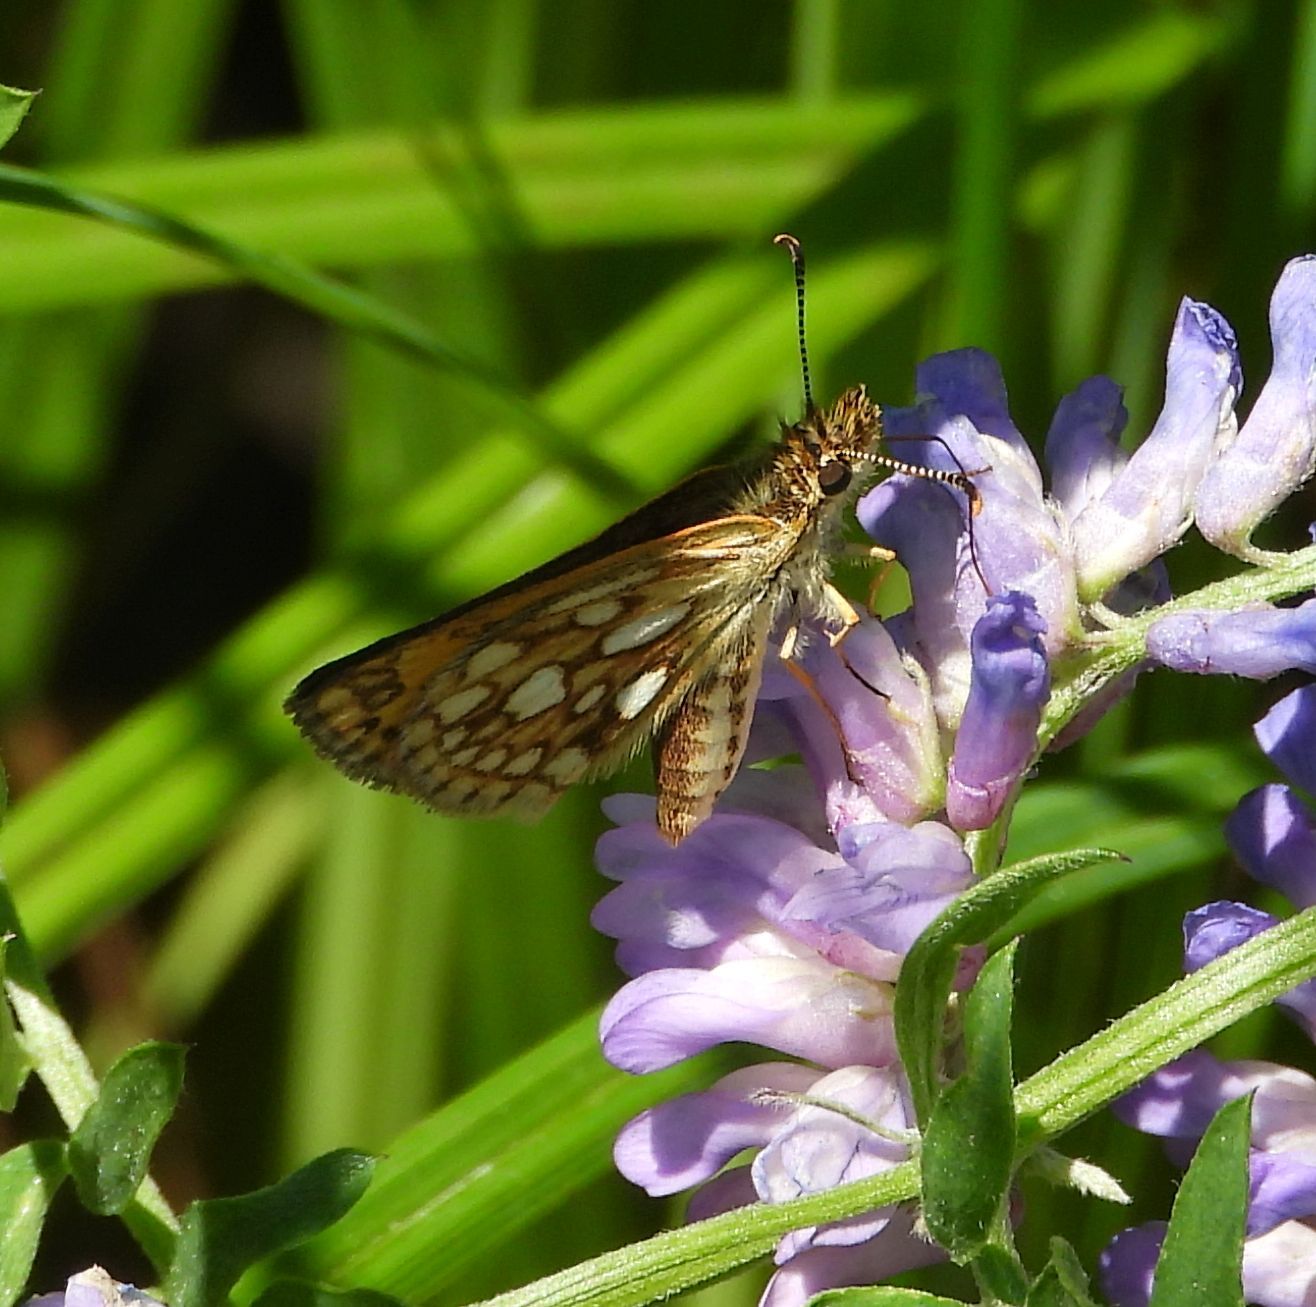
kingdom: Animalia
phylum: Arthropoda
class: Insecta
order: Lepidoptera
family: Hesperiidae
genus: Carterocephalus
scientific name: Carterocephalus mandan
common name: Arctic skipperling
